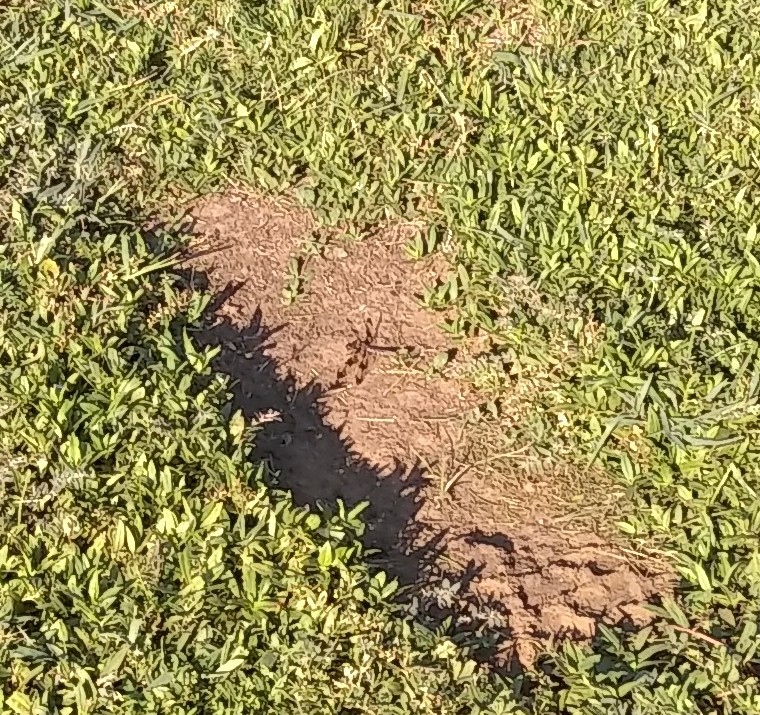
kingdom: Animalia
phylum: Arthropoda
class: Insecta
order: Odonata
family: Libellulidae
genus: Plathemis
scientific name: Plathemis lydia
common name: Common whitetail
